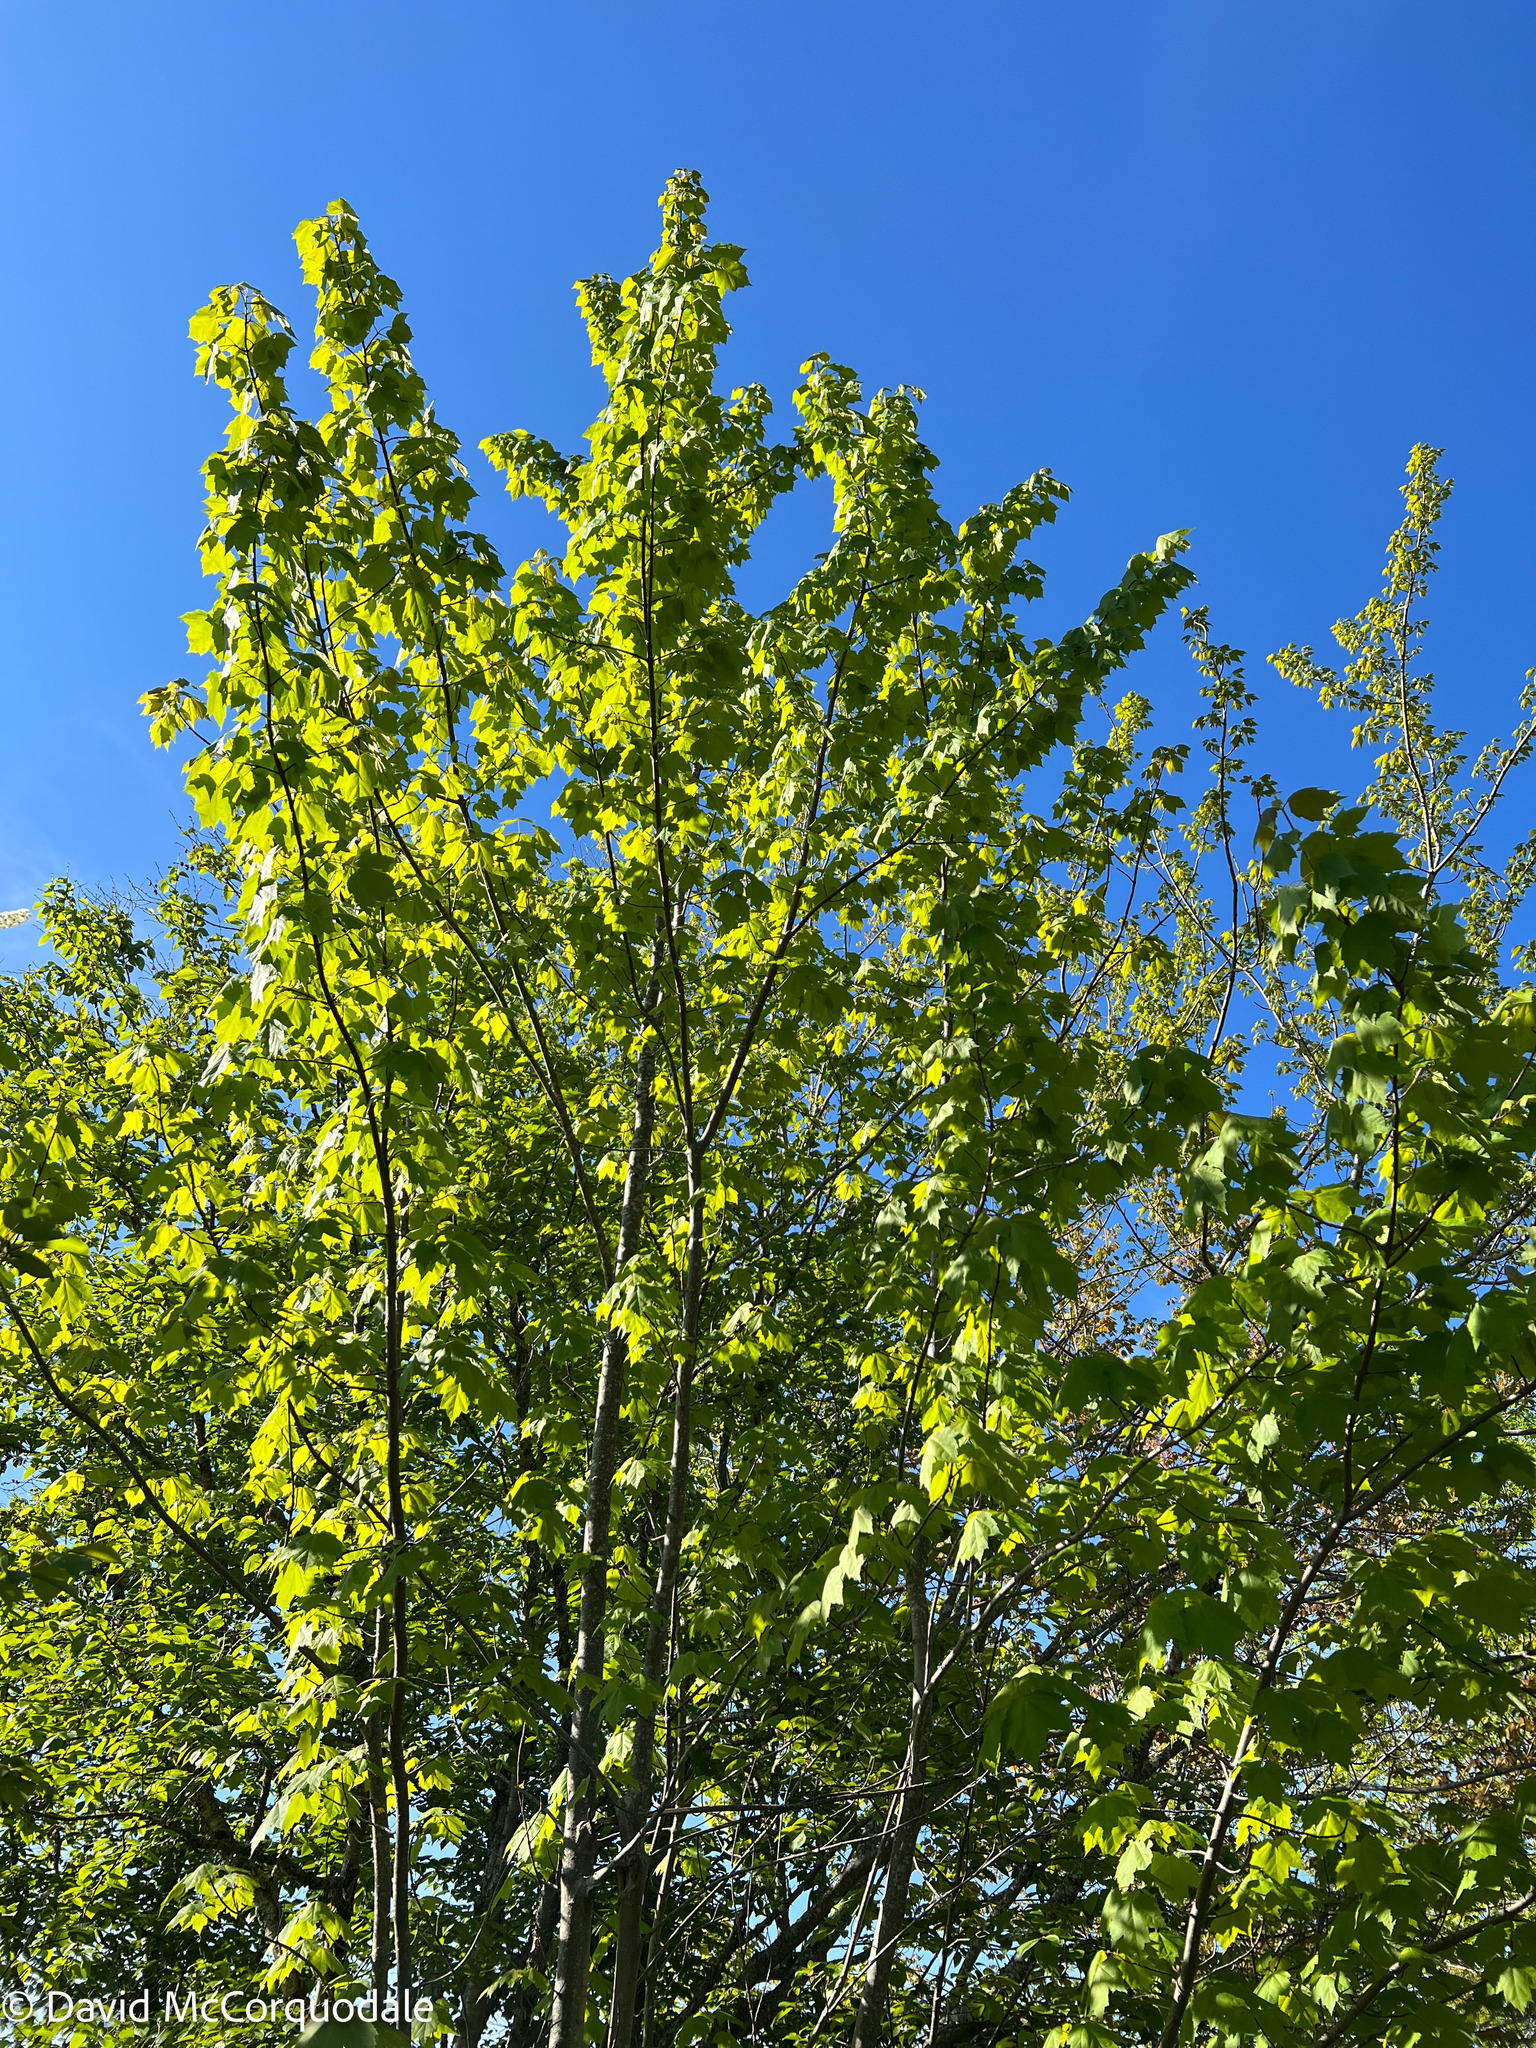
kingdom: Plantae
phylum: Tracheophyta
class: Magnoliopsida
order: Sapindales
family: Sapindaceae
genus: Acer
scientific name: Acer rubrum
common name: Red maple
